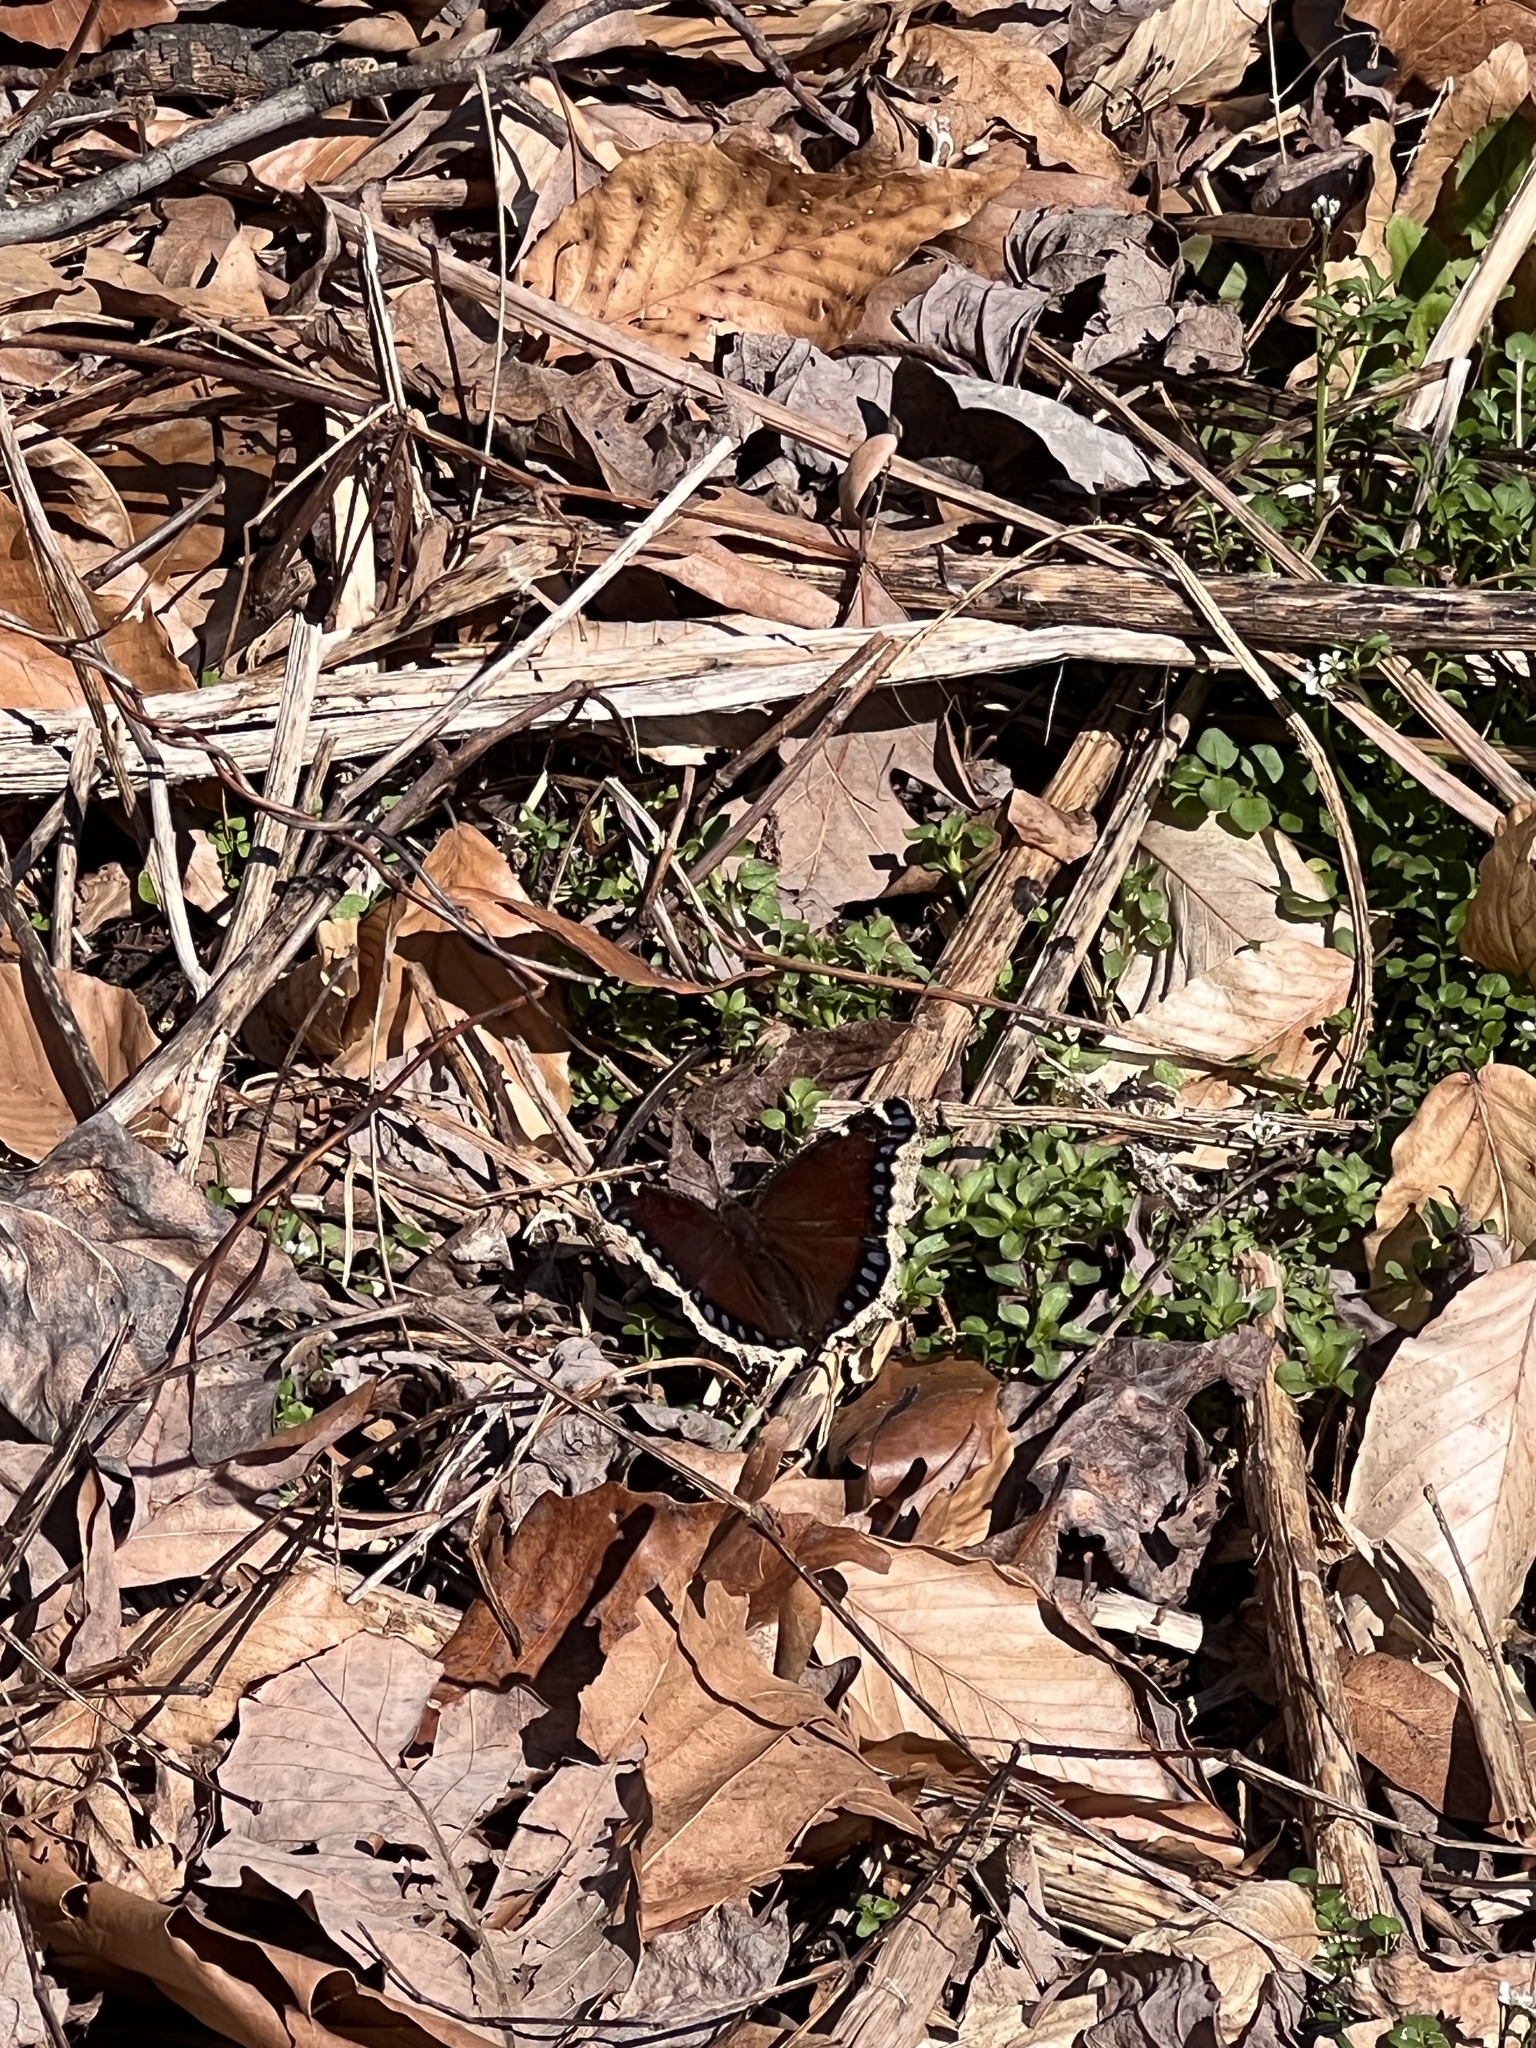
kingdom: Animalia
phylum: Arthropoda
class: Insecta
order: Lepidoptera
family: Nymphalidae
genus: Nymphalis
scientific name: Nymphalis antiopa
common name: Camberwell beauty
